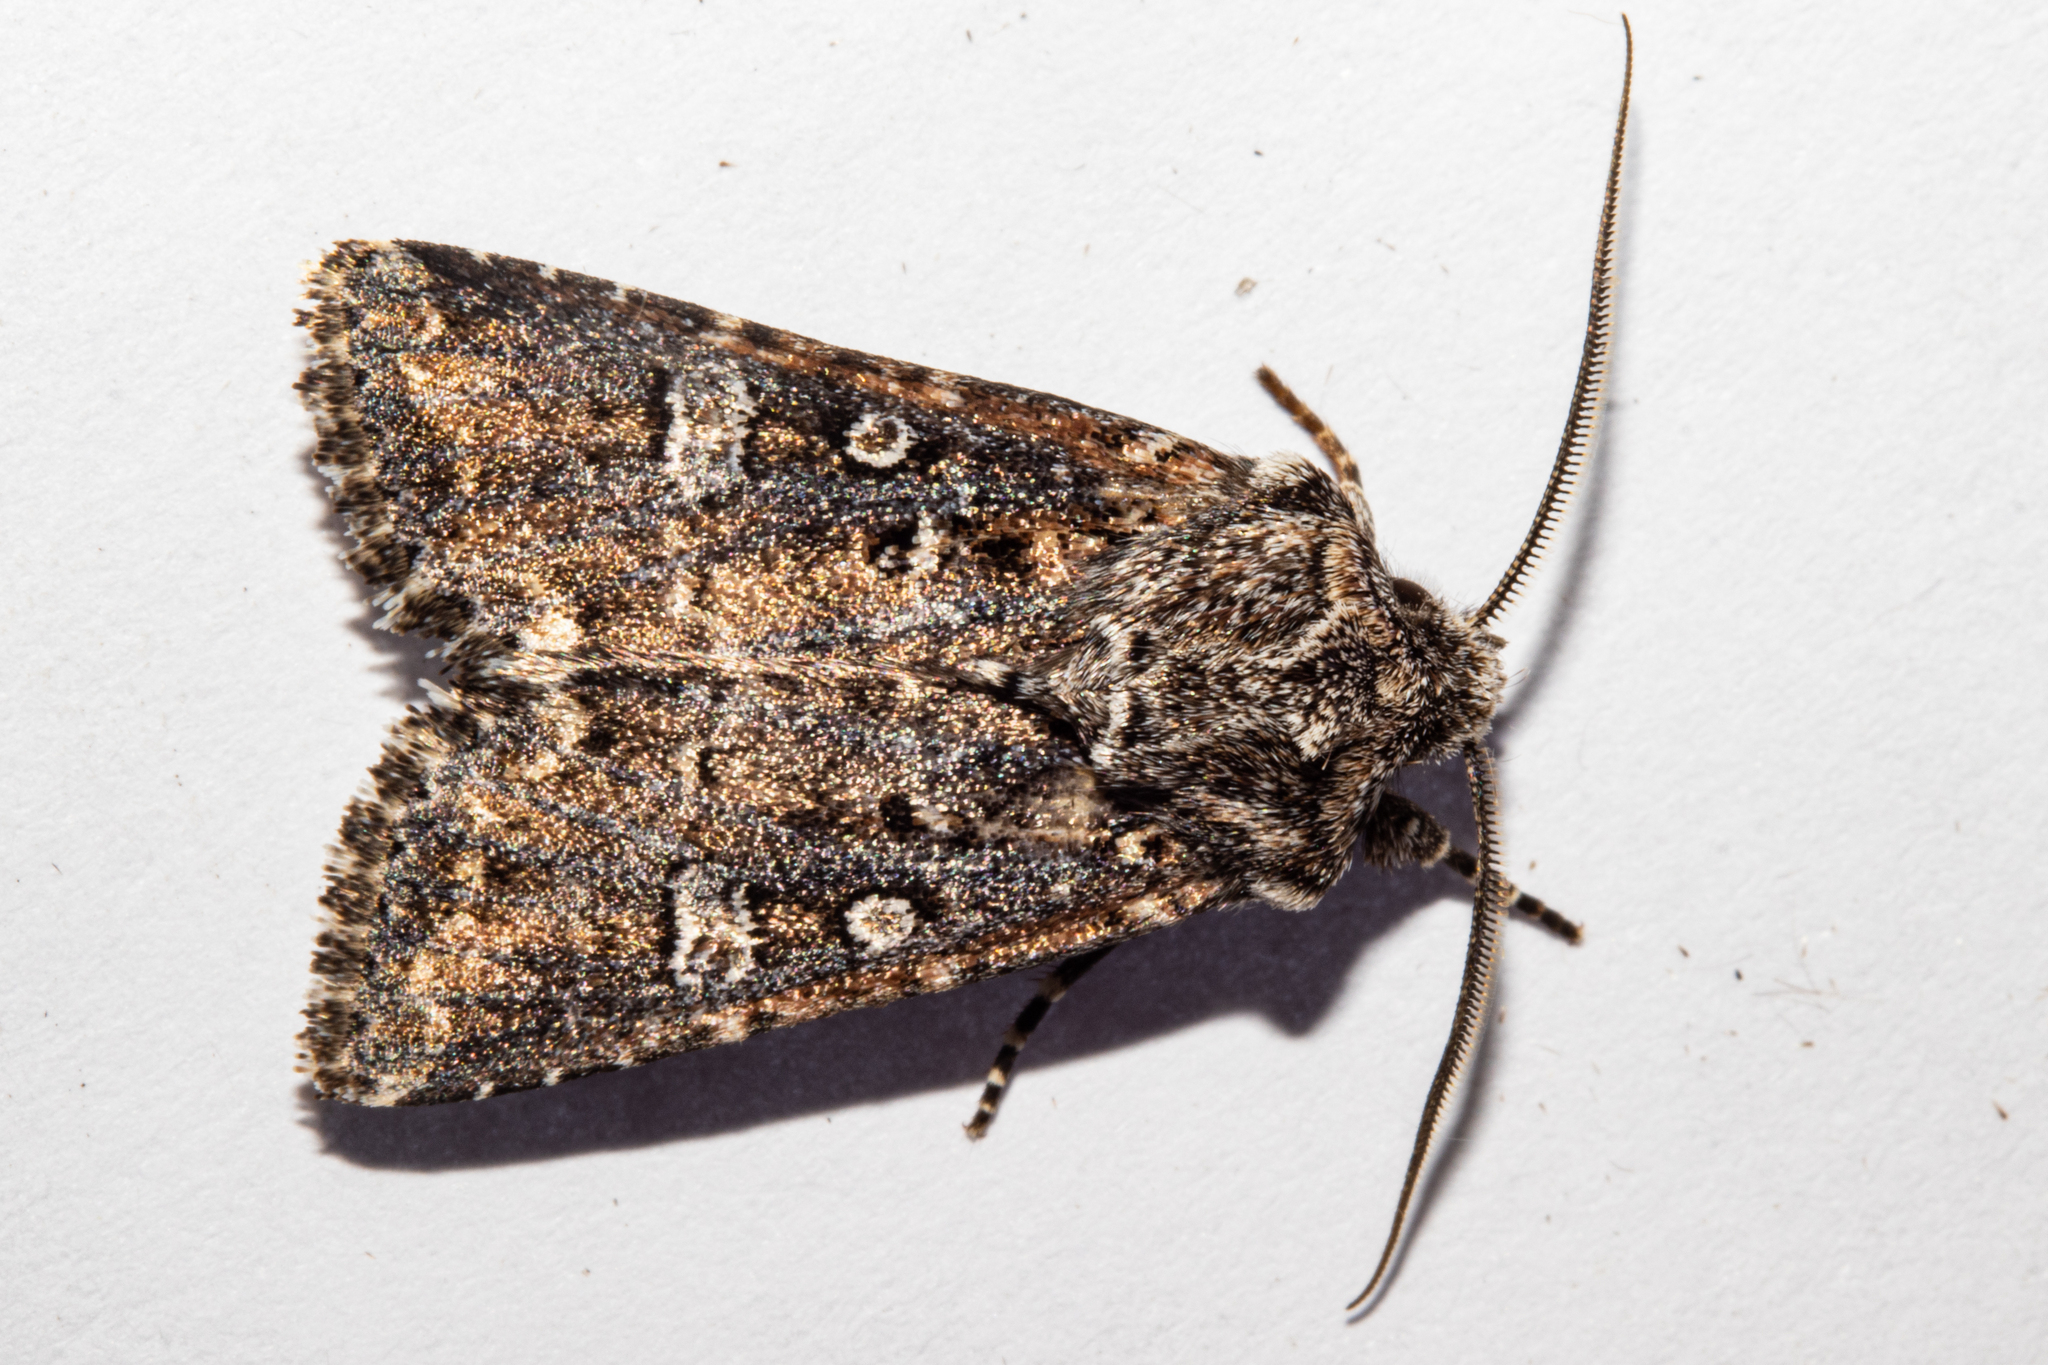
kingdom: Animalia
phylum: Arthropoda
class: Insecta
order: Lepidoptera
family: Noctuidae
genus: Ichneutica
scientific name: Ichneutica lithias
